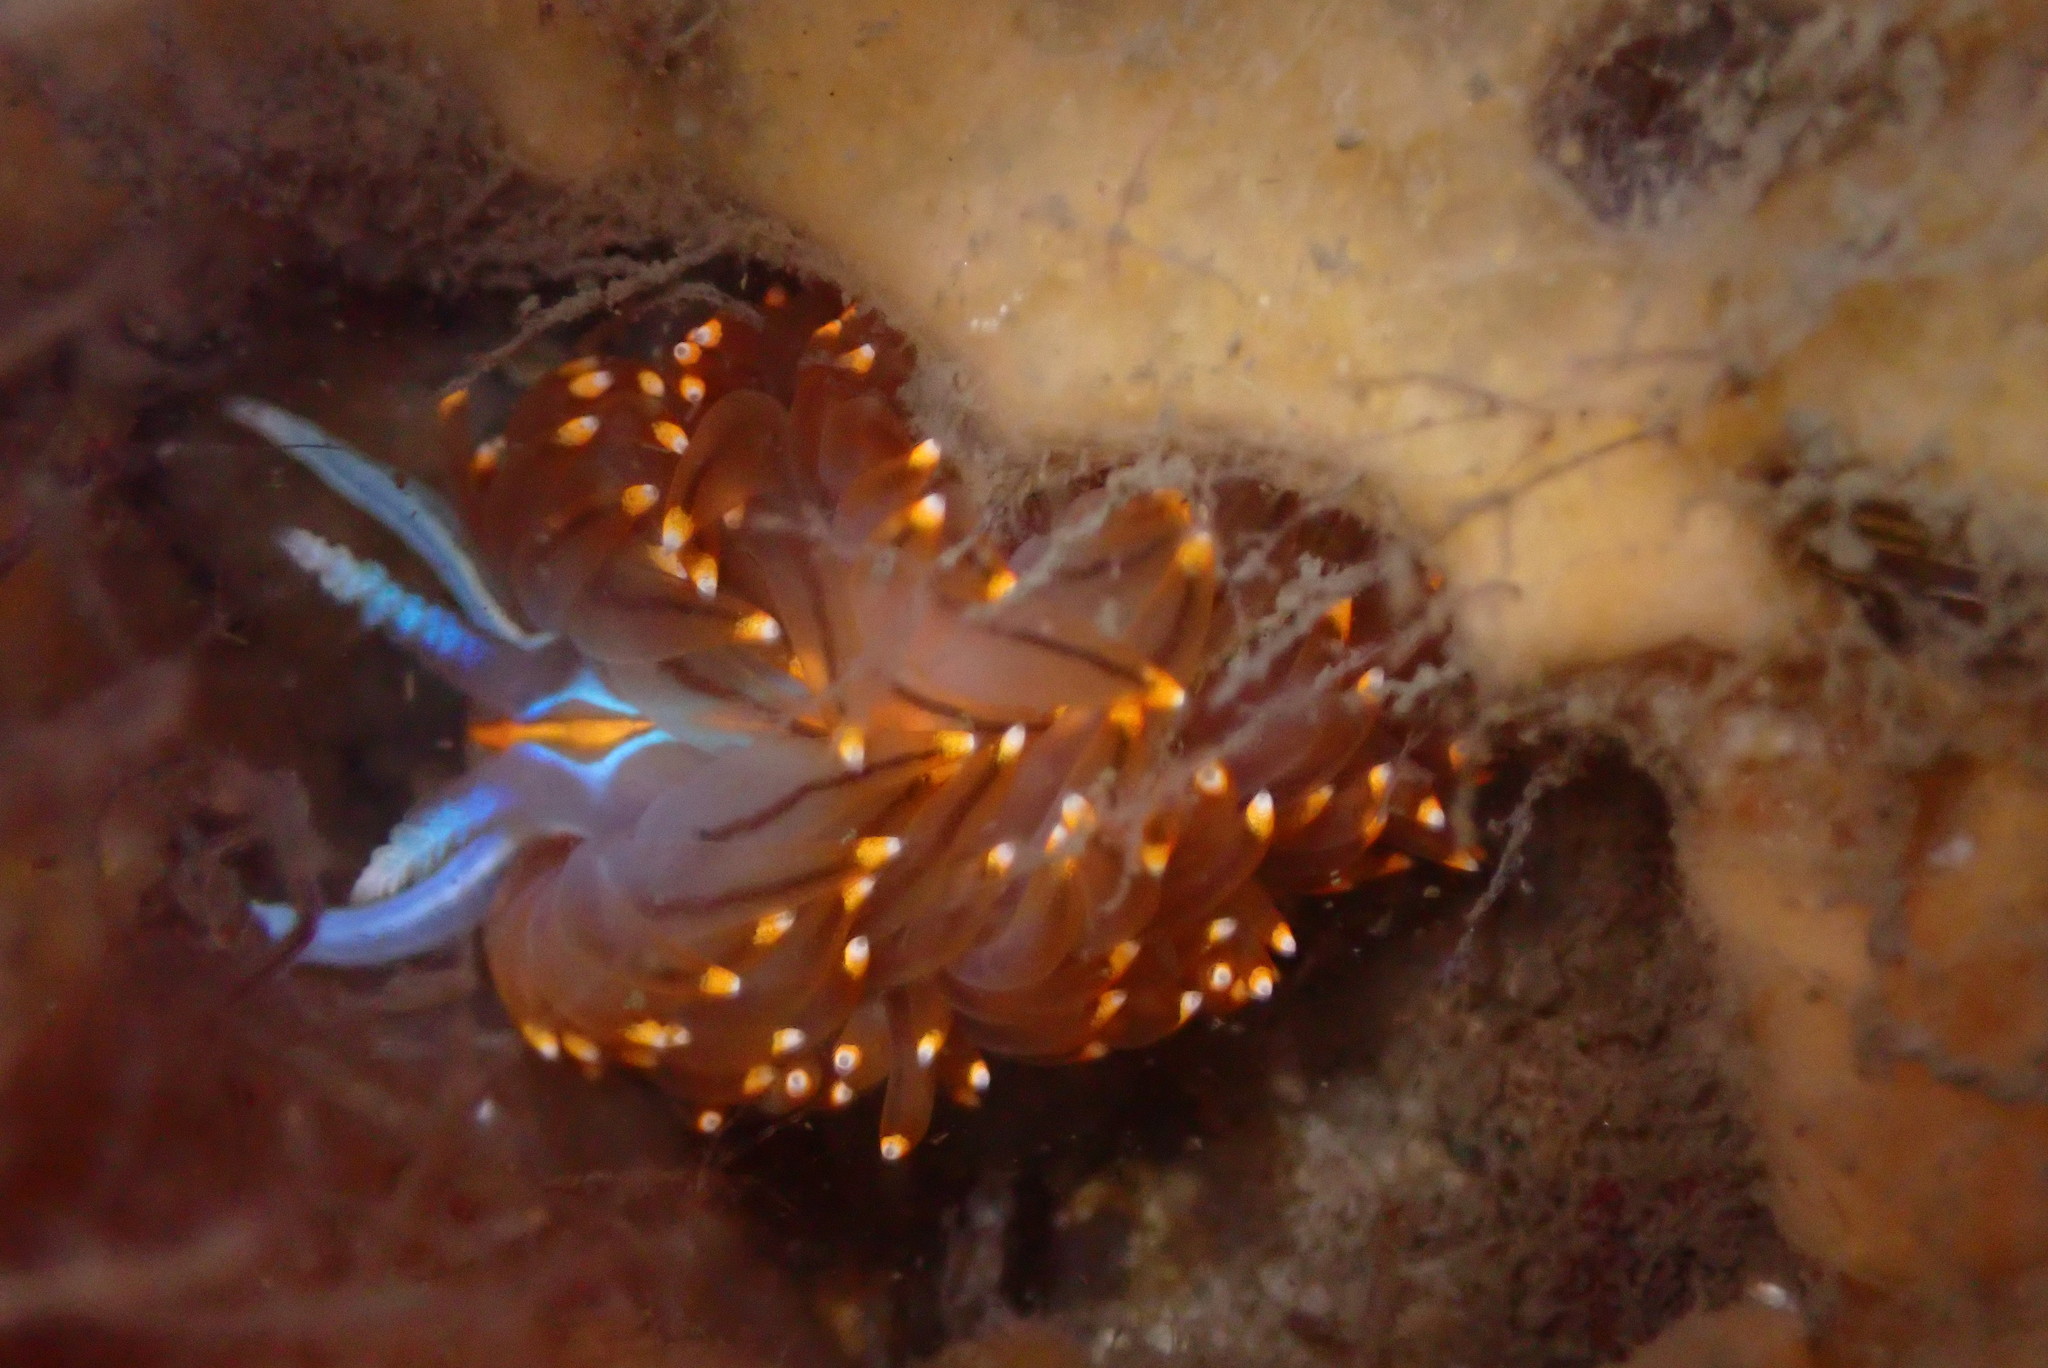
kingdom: Animalia
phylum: Mollusca
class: Gastropoda
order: Nudibranchia
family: Myrrhinidae
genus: Hermissenda
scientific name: Hermissenda opalescens
